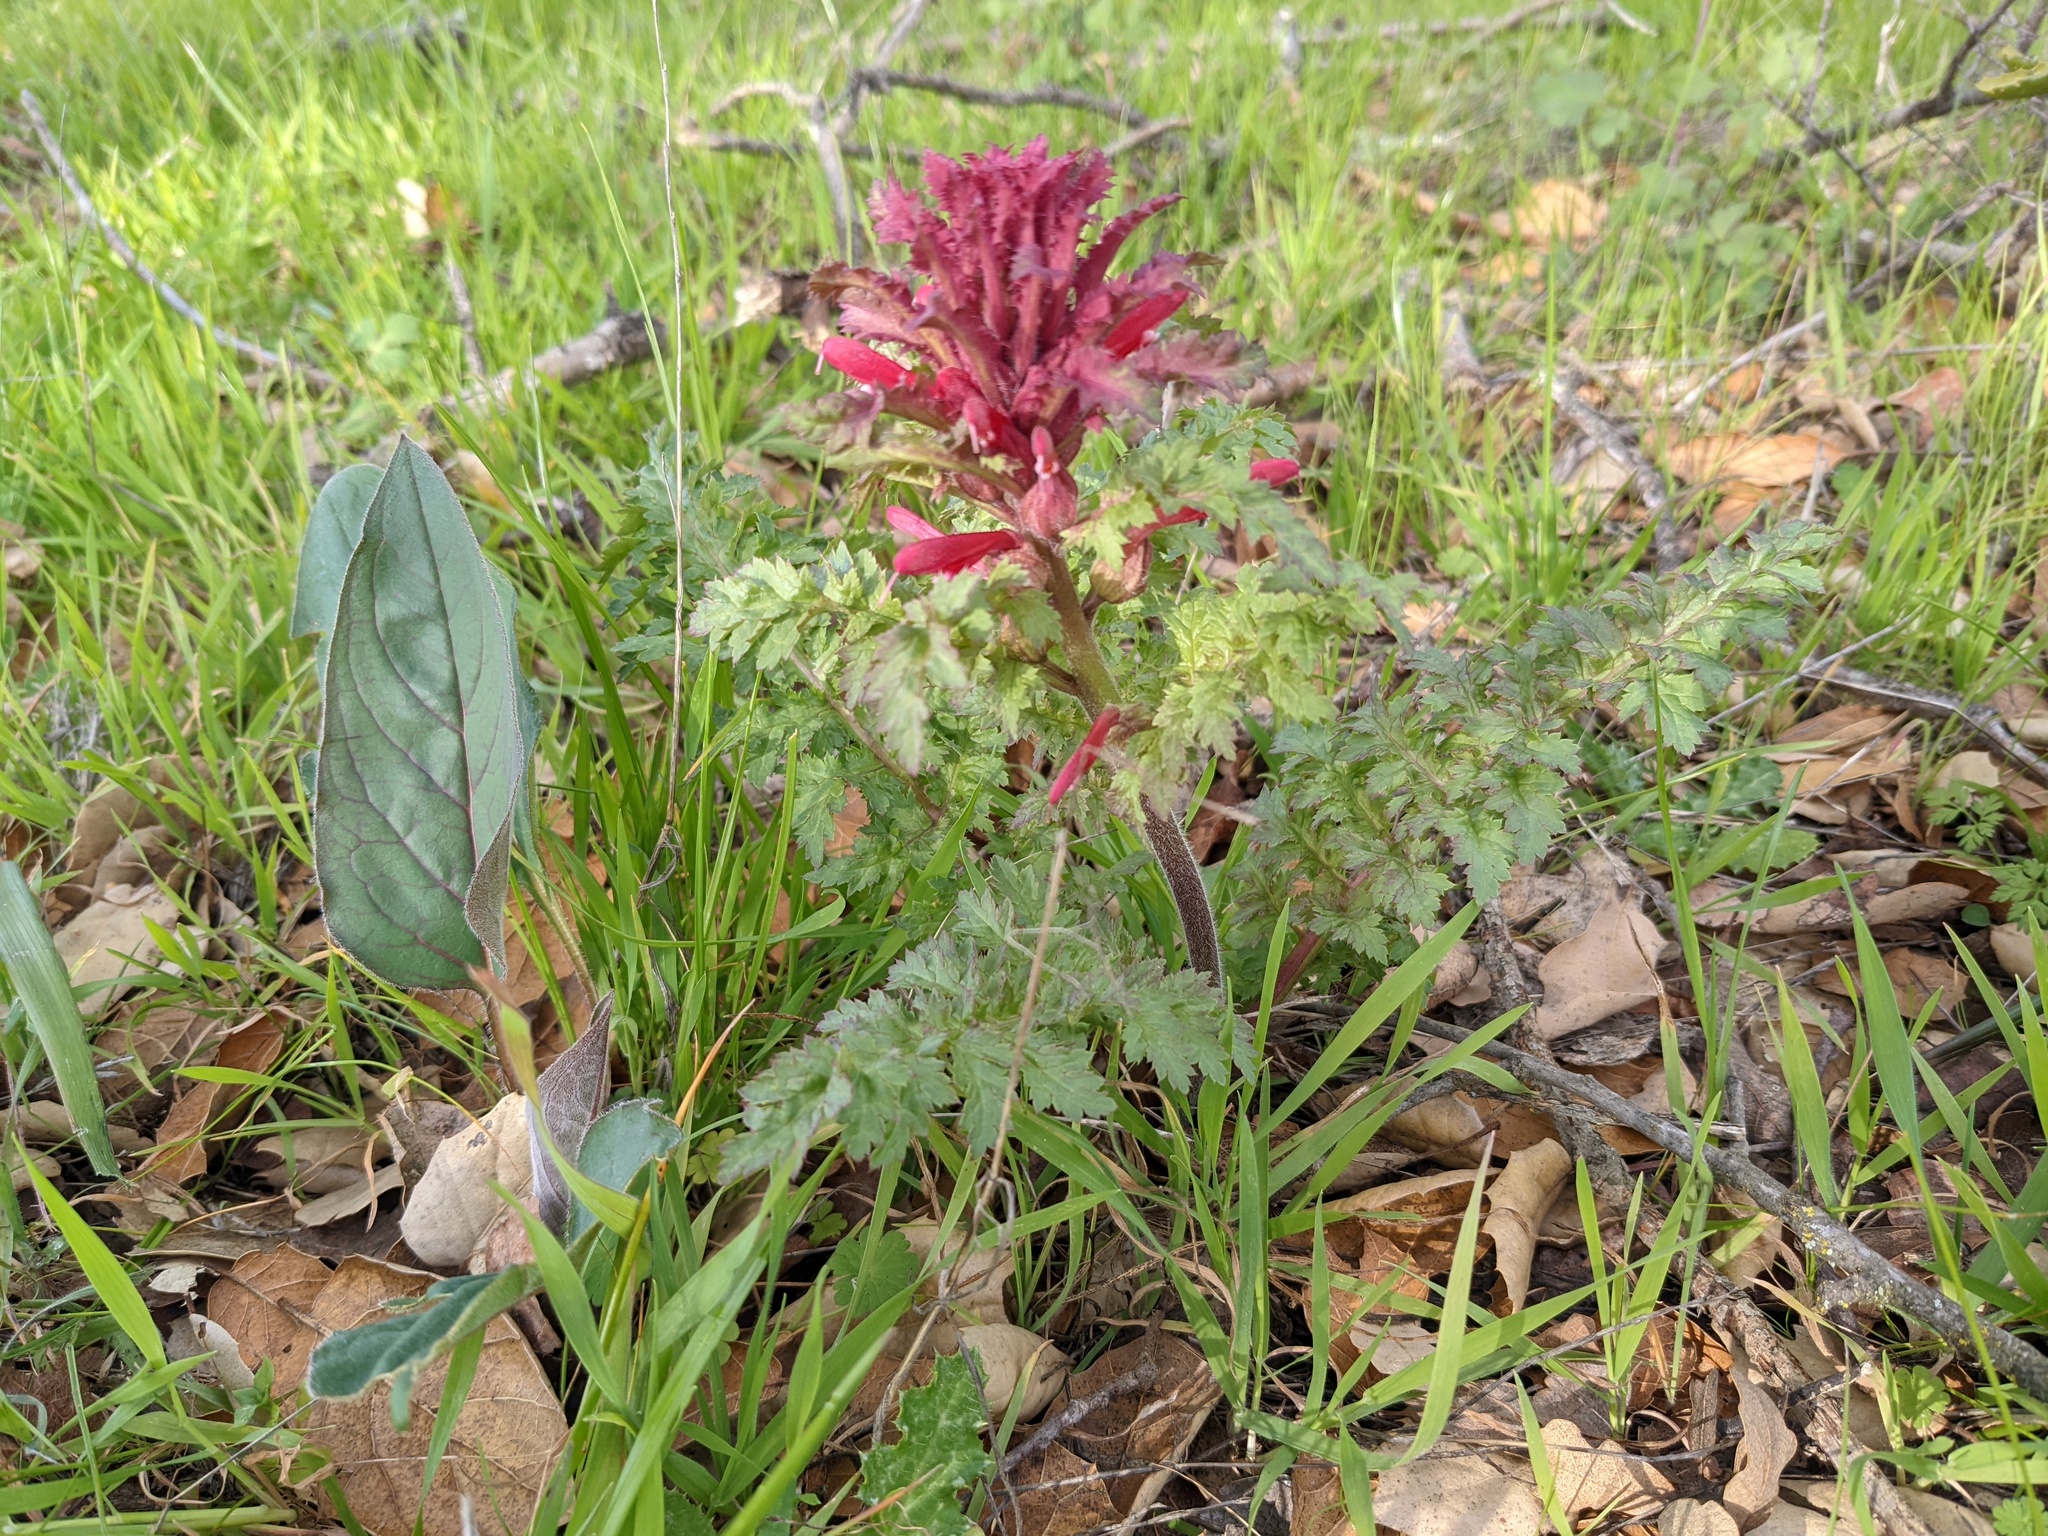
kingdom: Plantae
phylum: Tracheophyta
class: Magnoliopsida
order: Lamiales
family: Orobanchaceae
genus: Pedicularis
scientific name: Pedicularis densiflora
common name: Indian warrior
